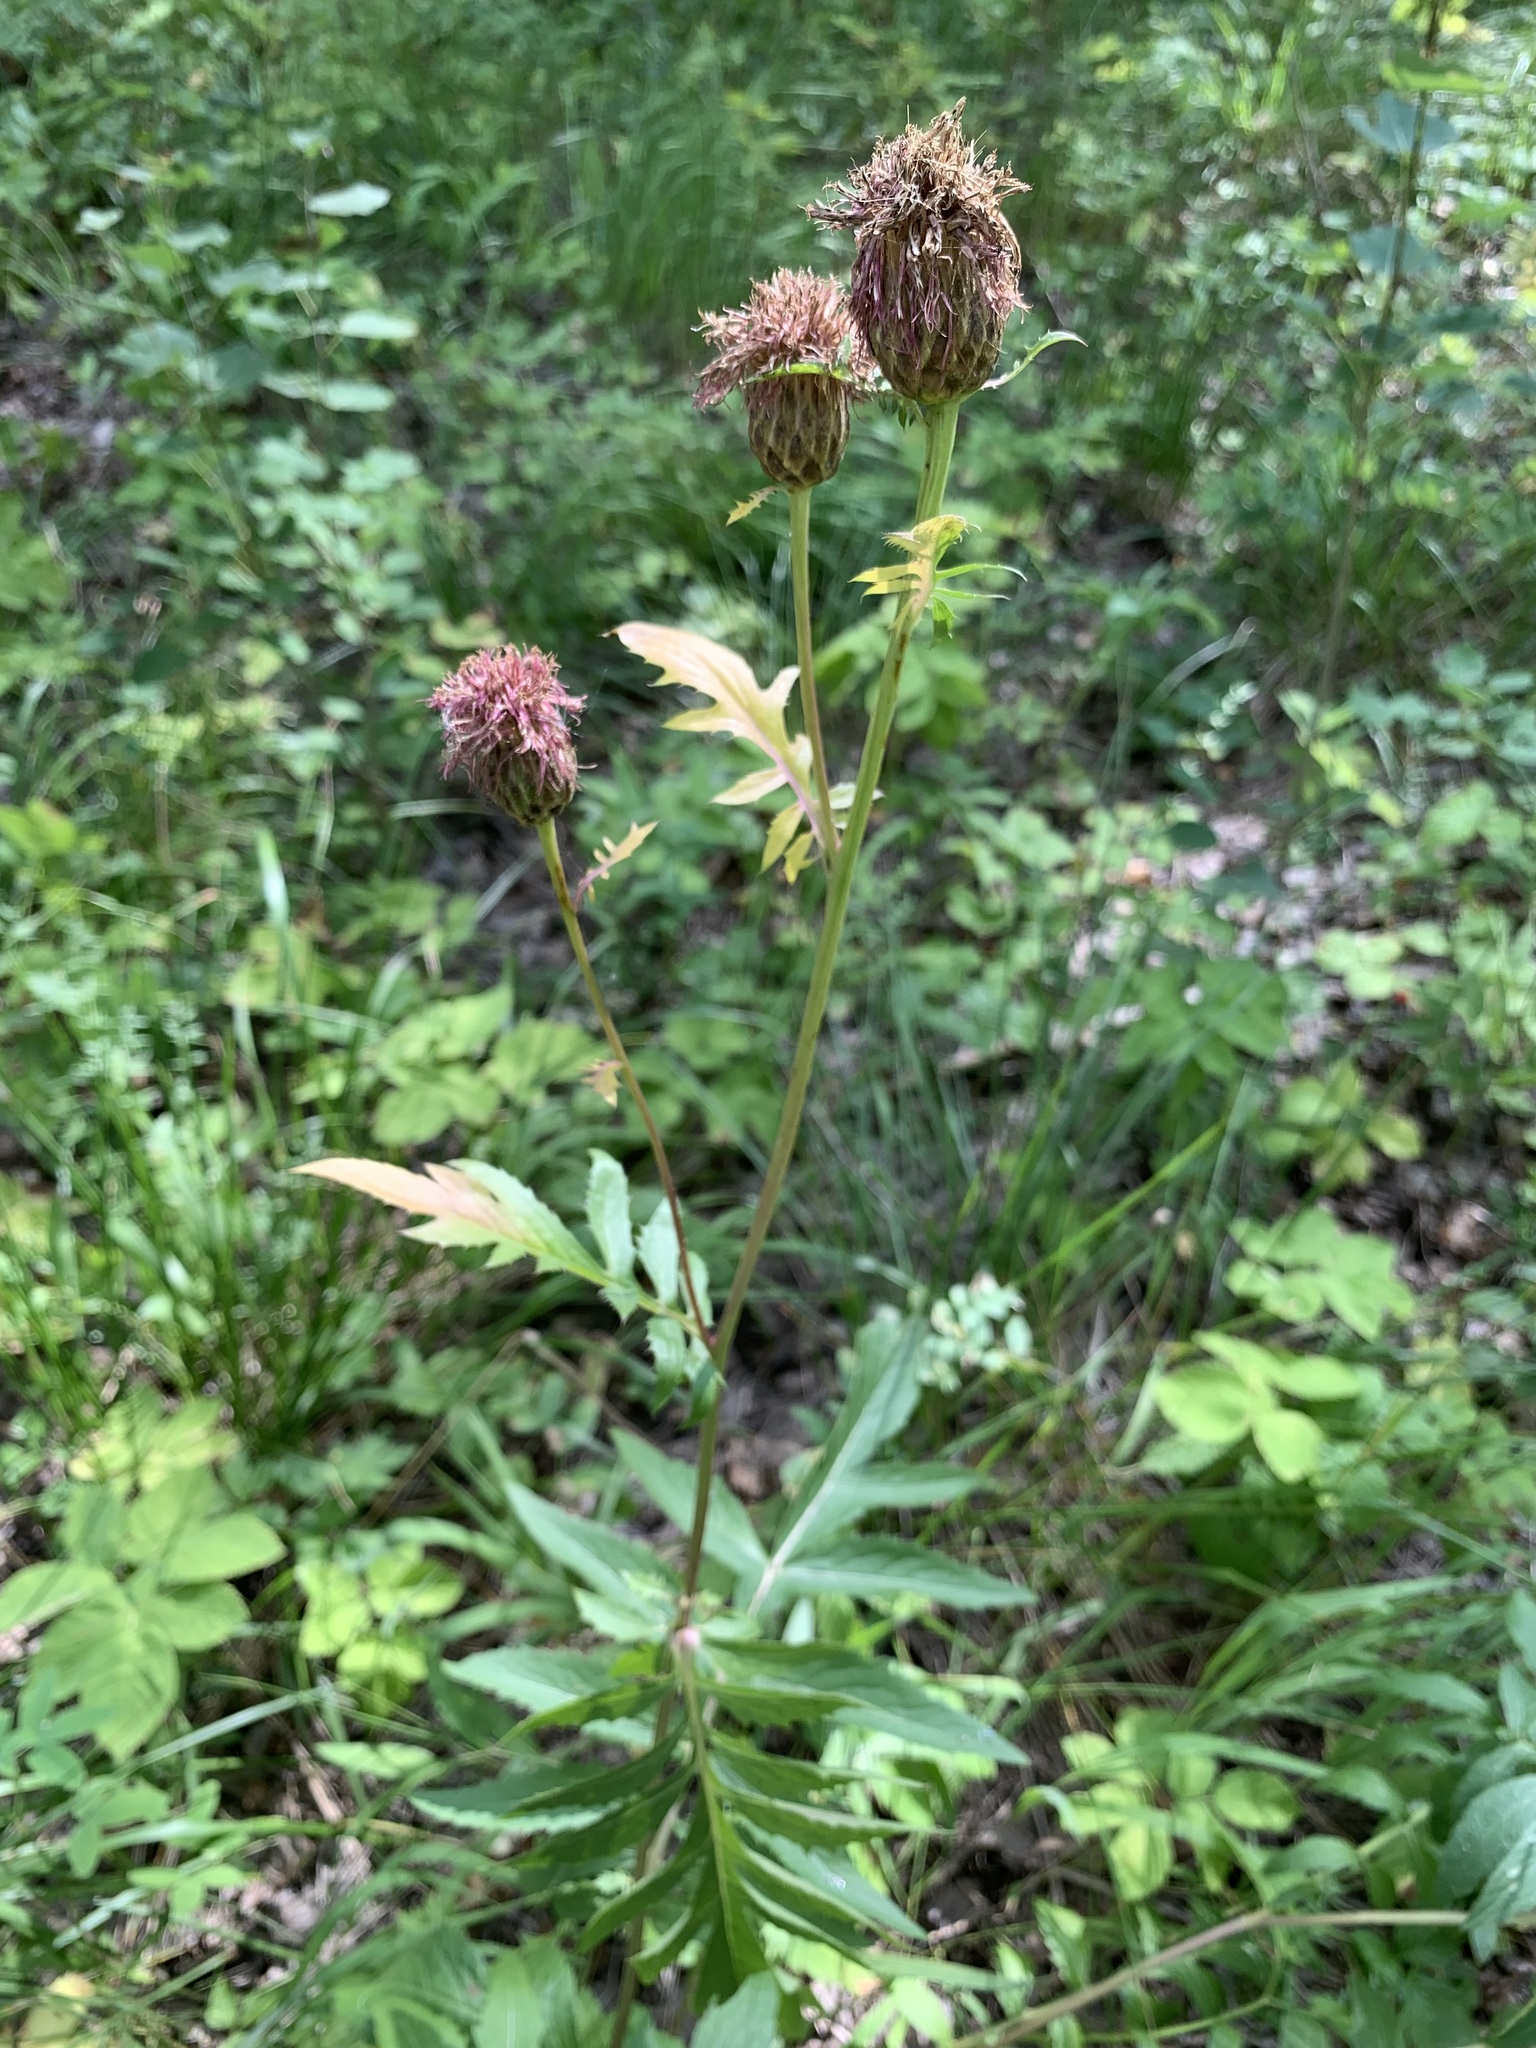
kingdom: Plantae
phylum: Tracheophyta
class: Magnoliopsida
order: Asterales
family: Asteraceae
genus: Serratula
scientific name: Serratula coronata
